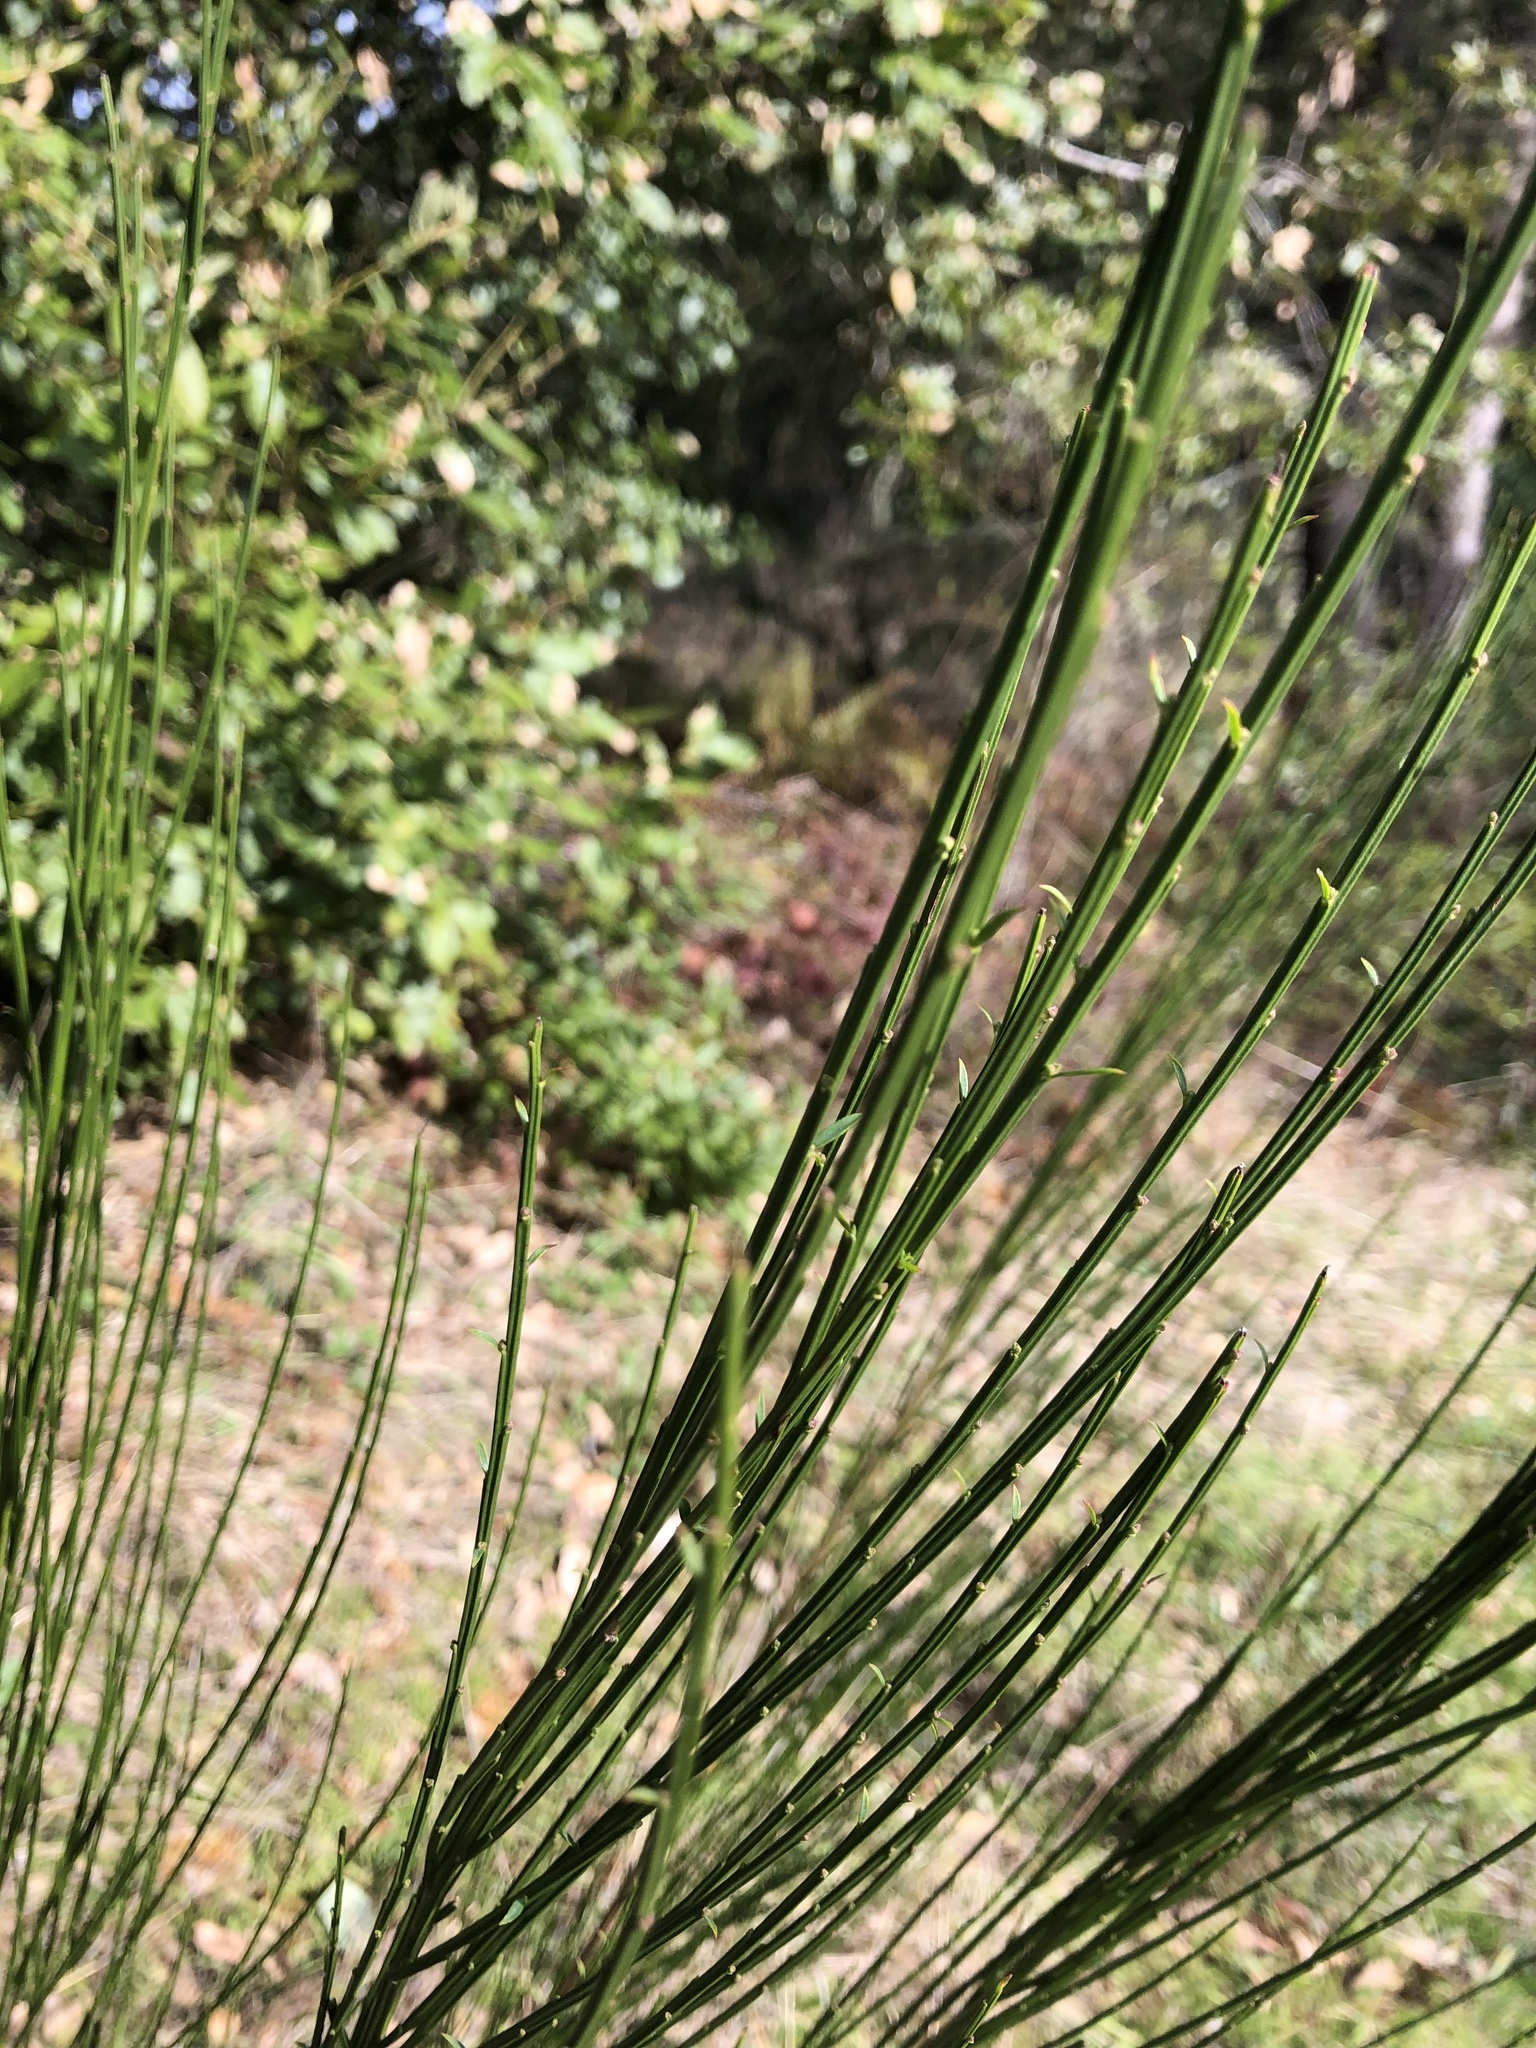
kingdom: Plantae
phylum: Tracheophyta
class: Magnoliopsida
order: Fabales
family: Fabaceae
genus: Cytisus
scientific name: Cytisus scoparius
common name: Scotch broom
